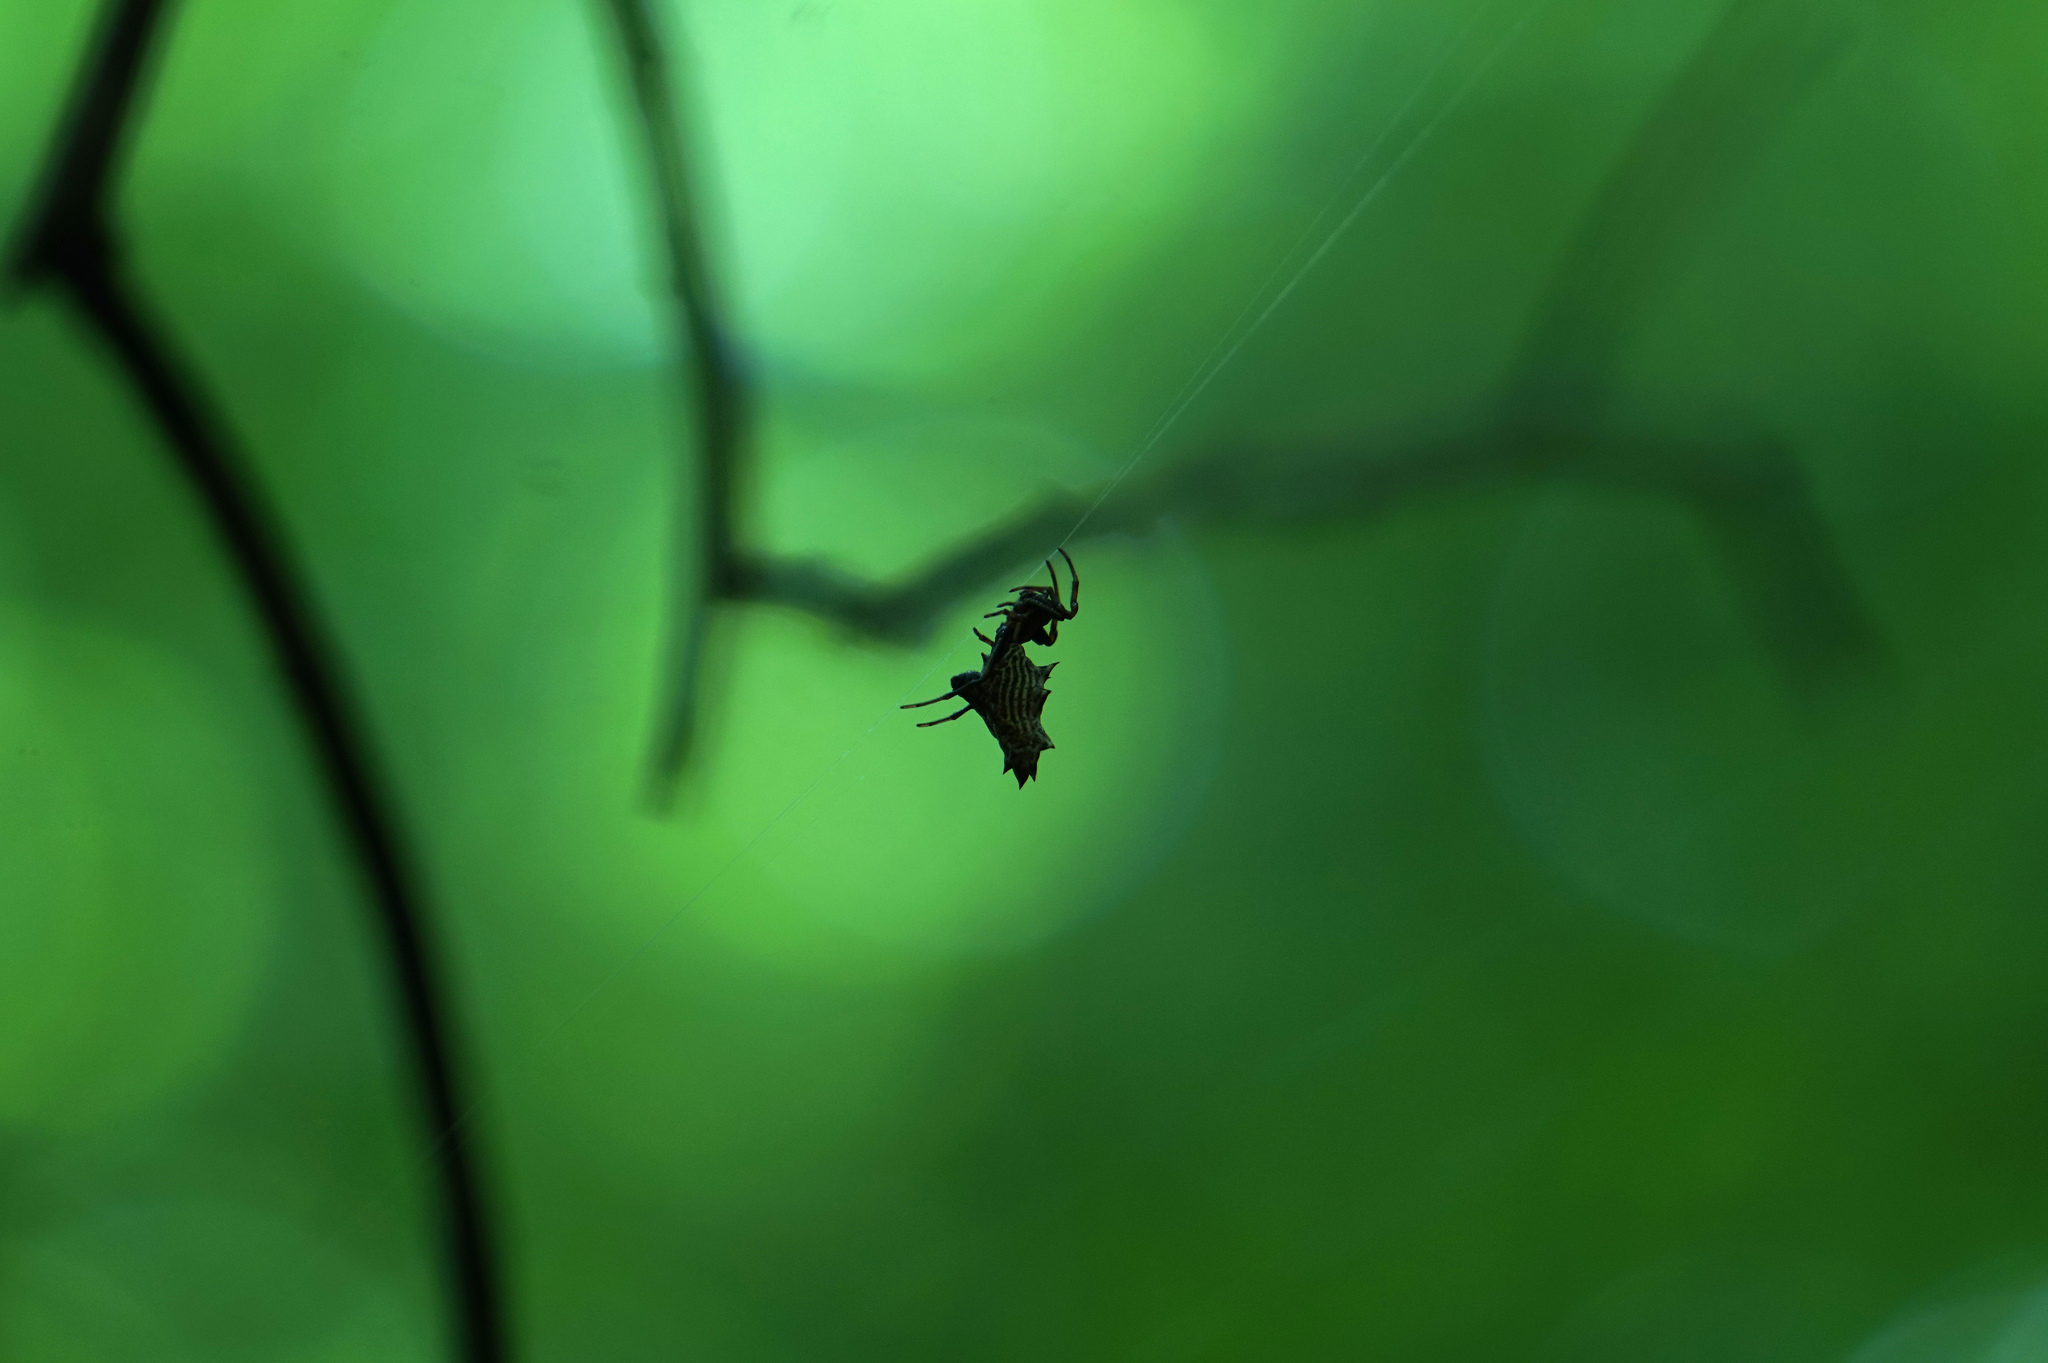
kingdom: Animalia
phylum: Arthropoda
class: Arachnida
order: Araneae
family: Araneidae
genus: Micrathena
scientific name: Micrathena gracilis
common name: Orb weavers
